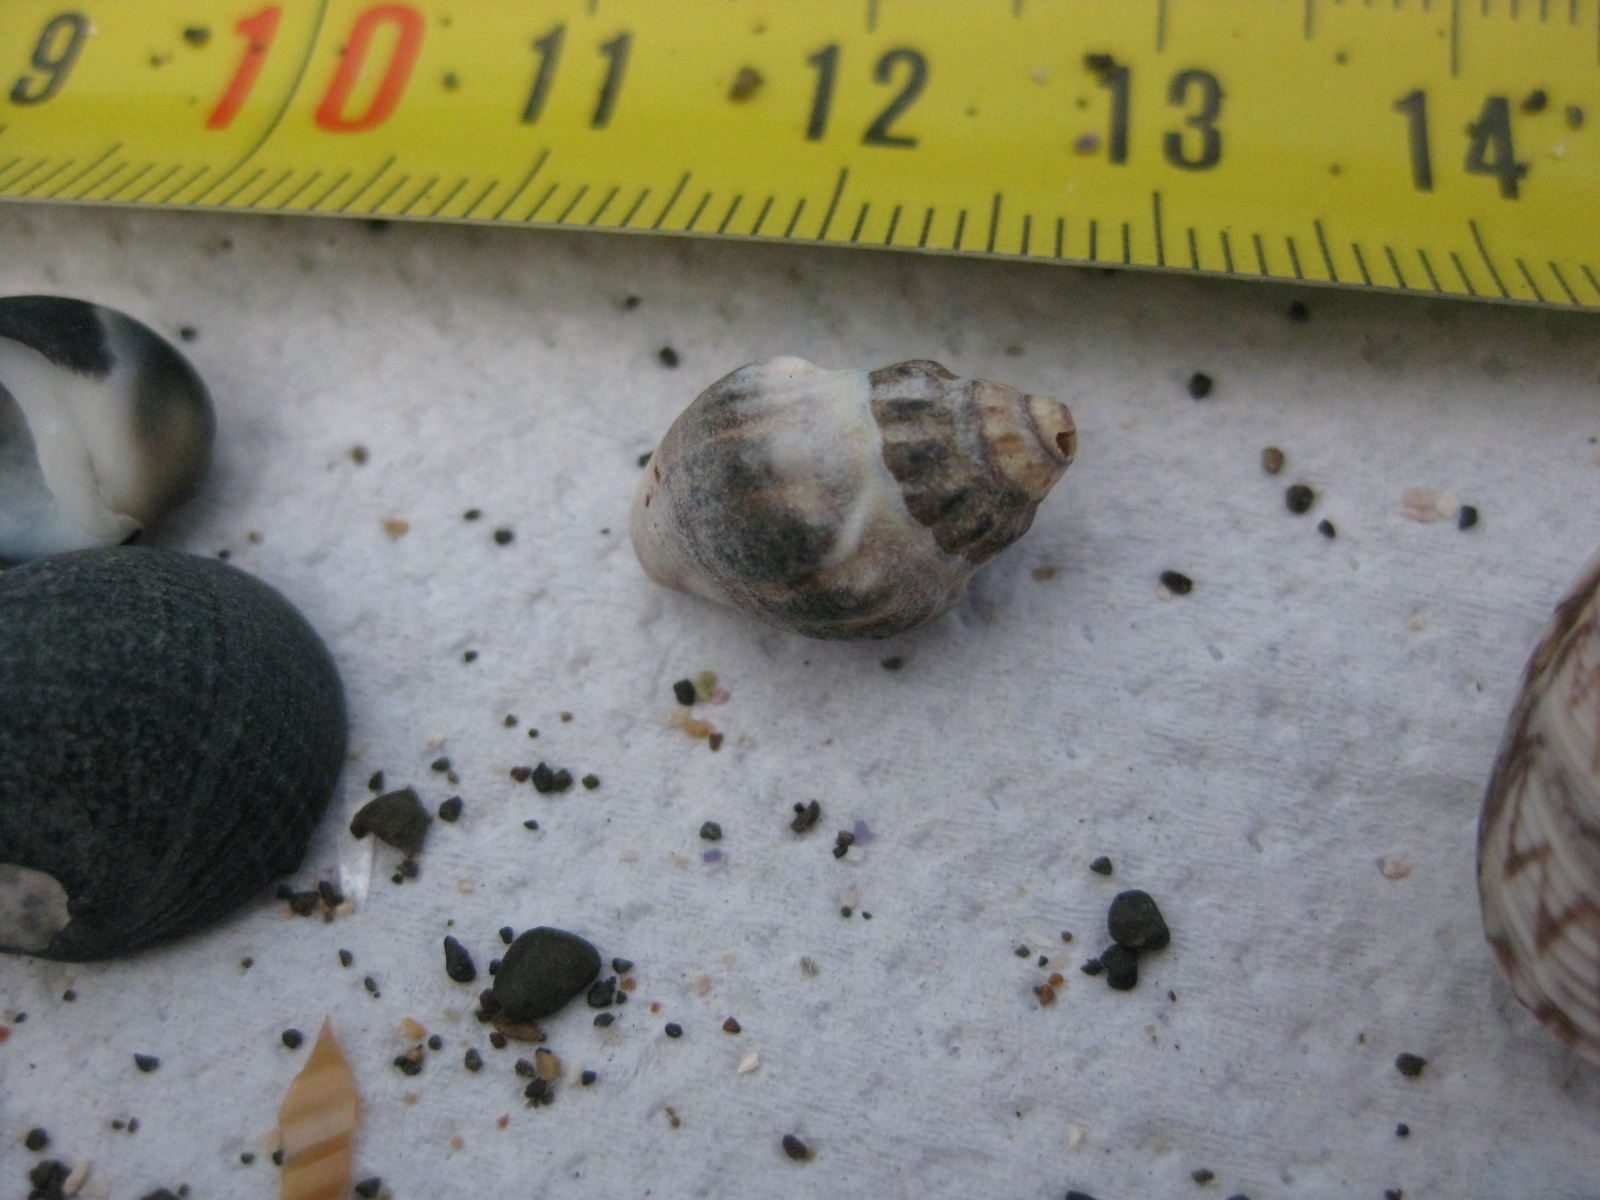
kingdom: Animalia
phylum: Mollusca
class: Gastropoda
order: Neogastropoda
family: Cominellidae
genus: Cominella
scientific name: Cominella glandiformis
